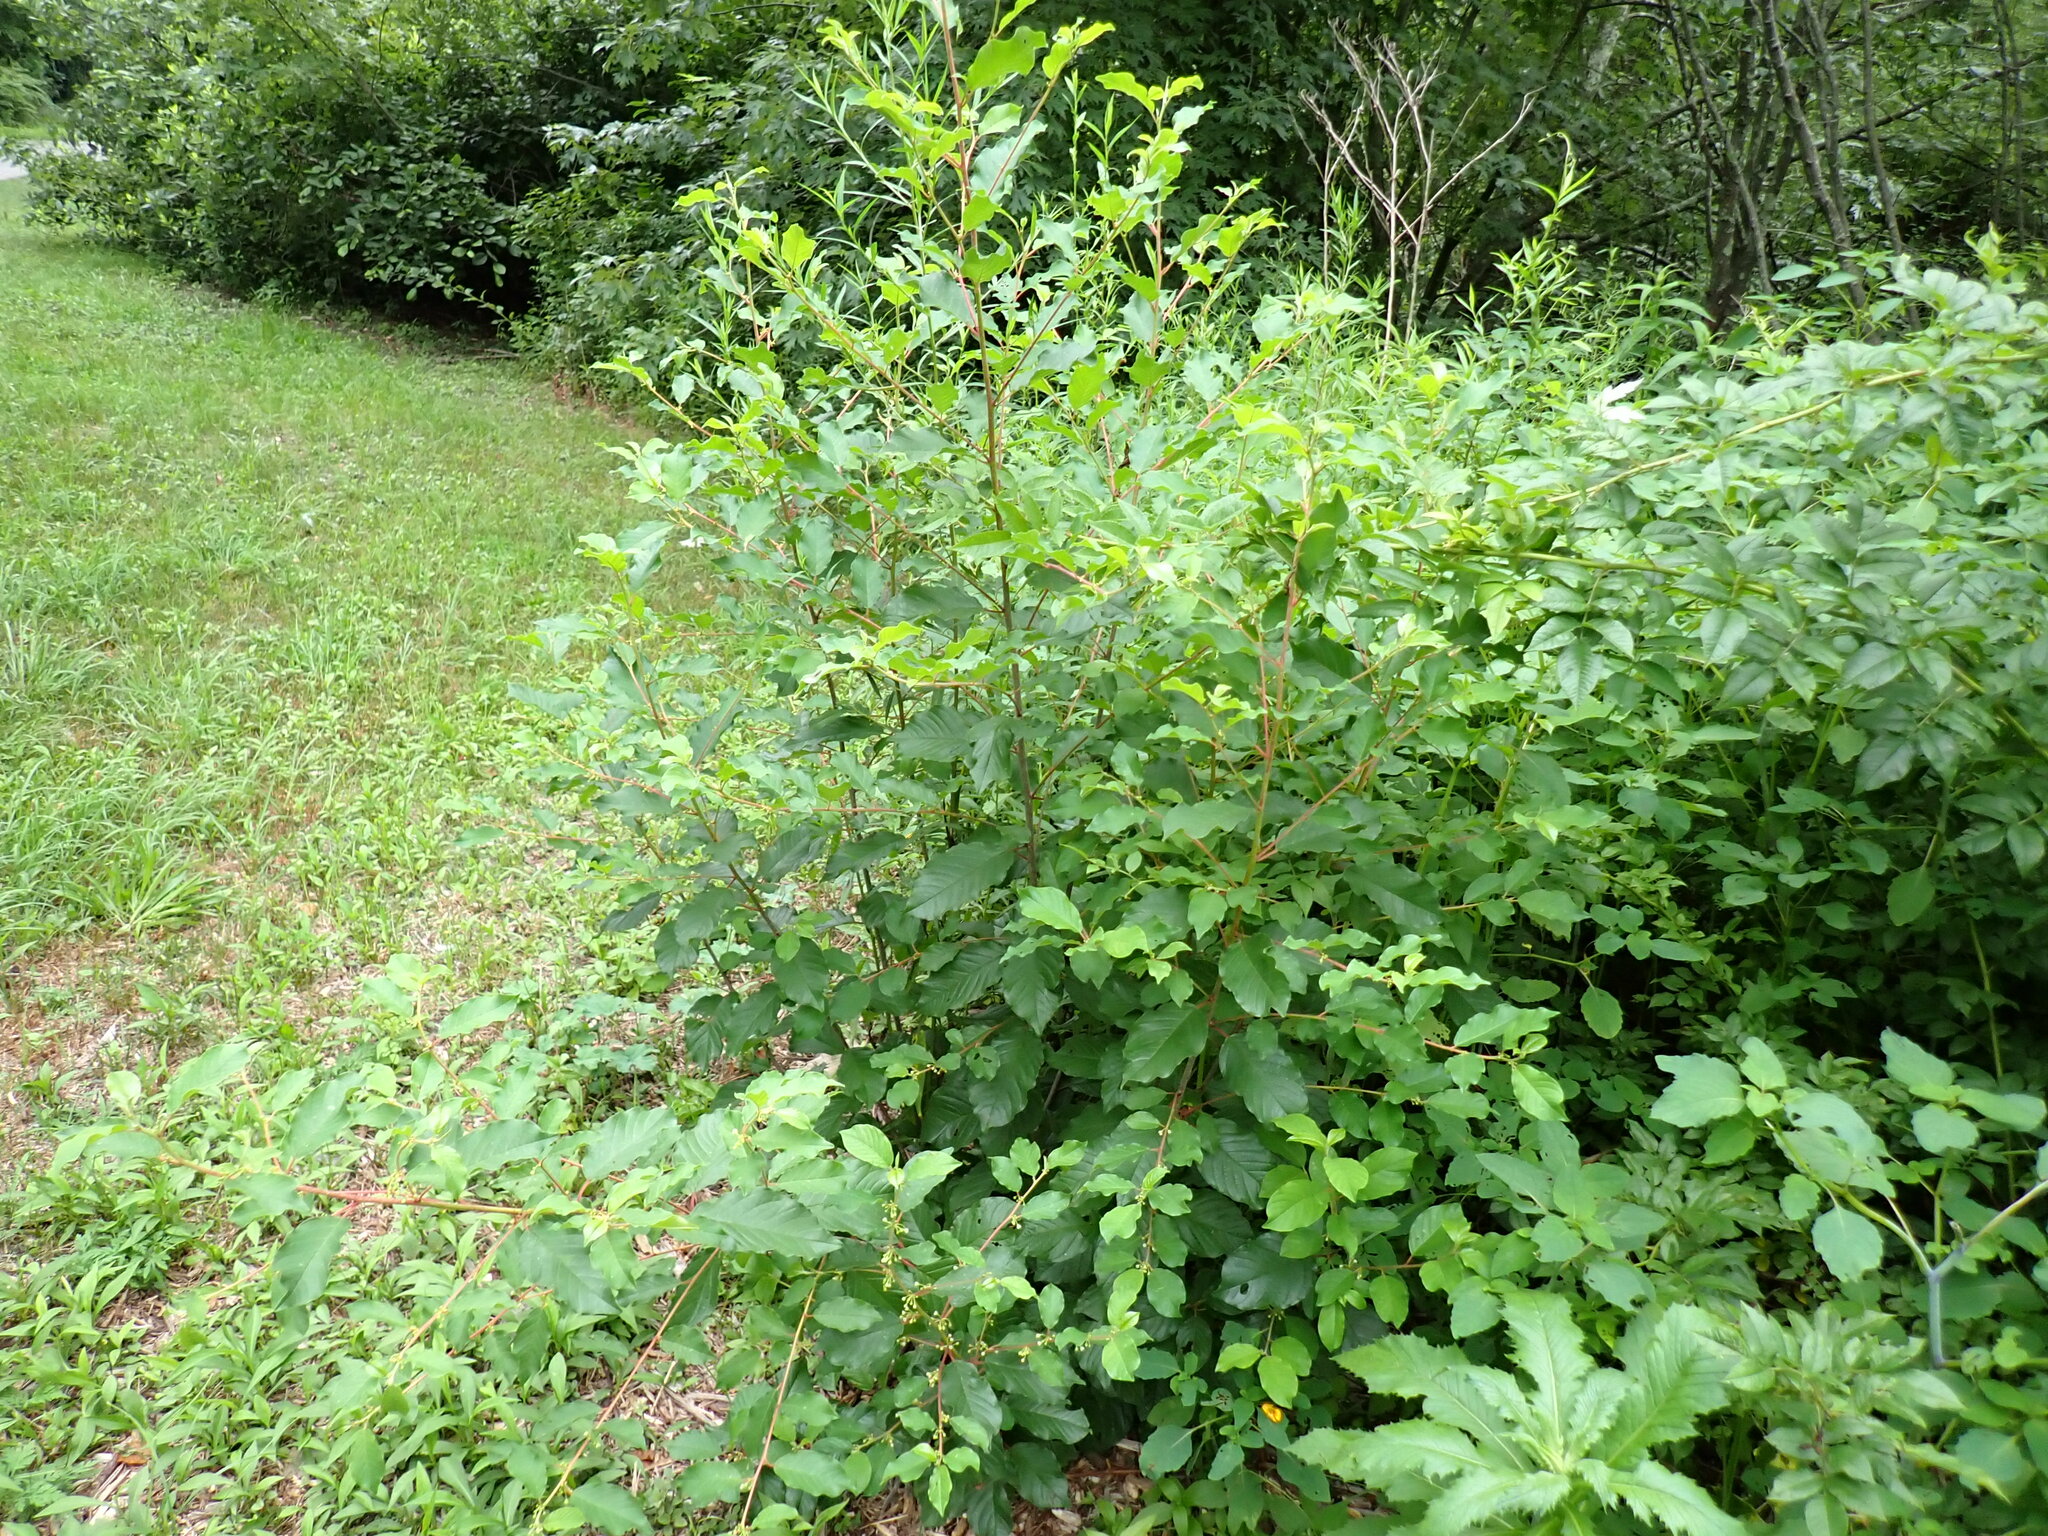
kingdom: Plantae
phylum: Tracheophyta
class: Magnoliopsida
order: Rosales
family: Rhamnaceae
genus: Frangula
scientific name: Frangula alnus
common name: Alder buckthorn
